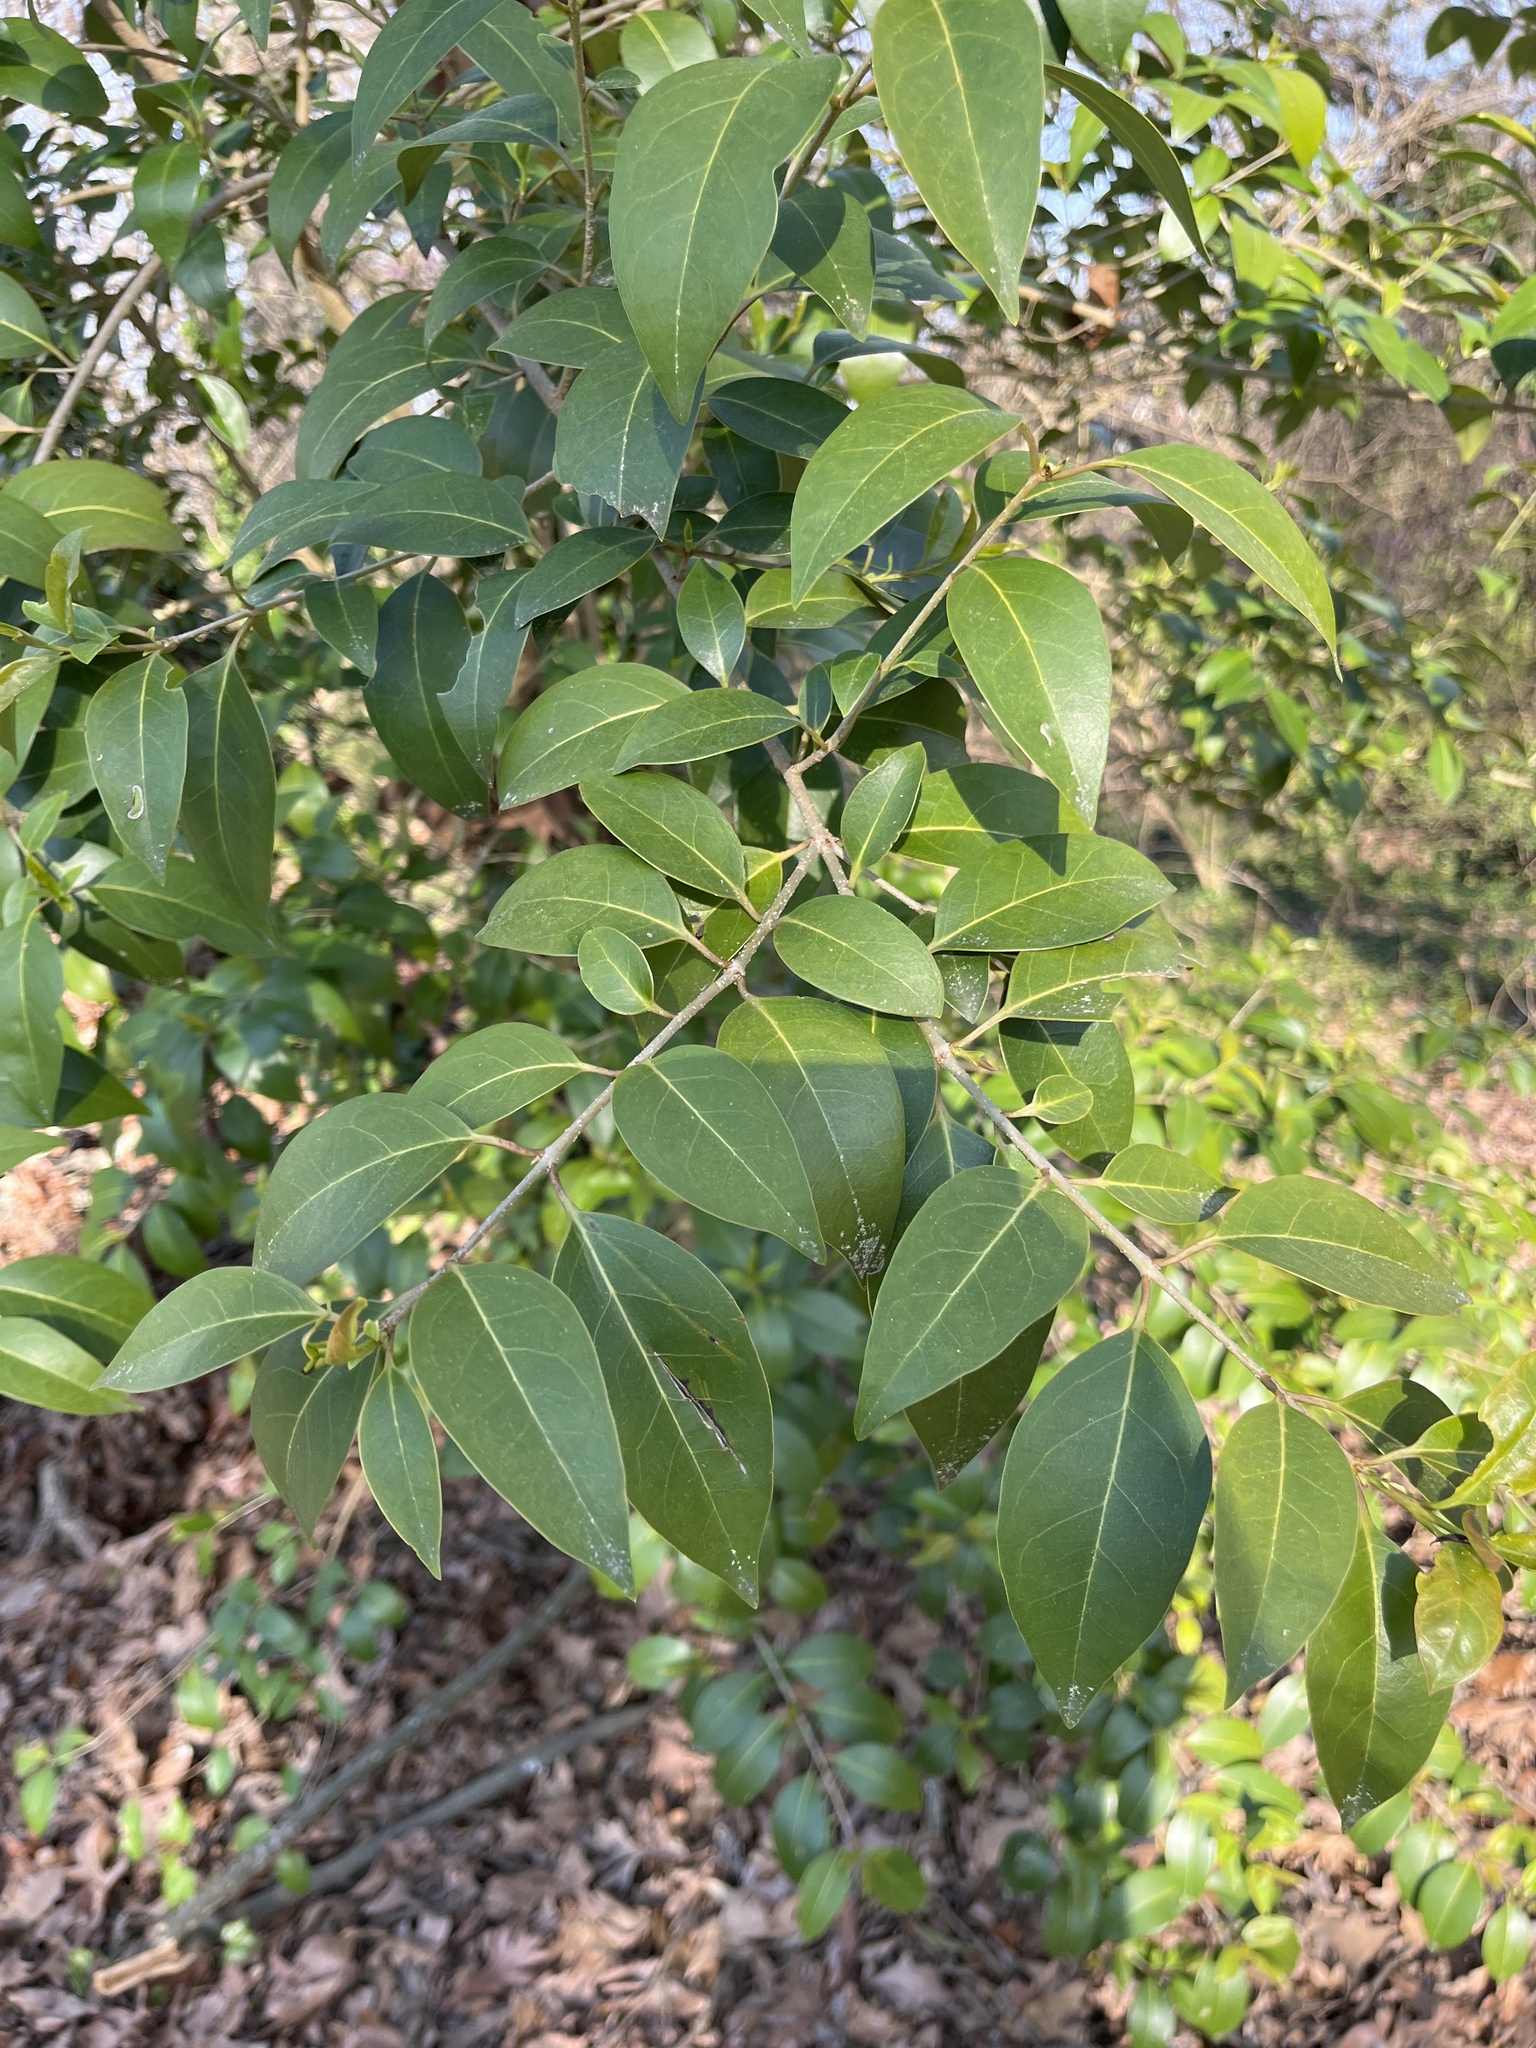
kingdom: Plantae
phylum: Tracheophyta
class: Magnoliopsida
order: Lamiales
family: Oleaceae
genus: Ligustrum
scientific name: Ligustrum lucidum
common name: Glossy privet
